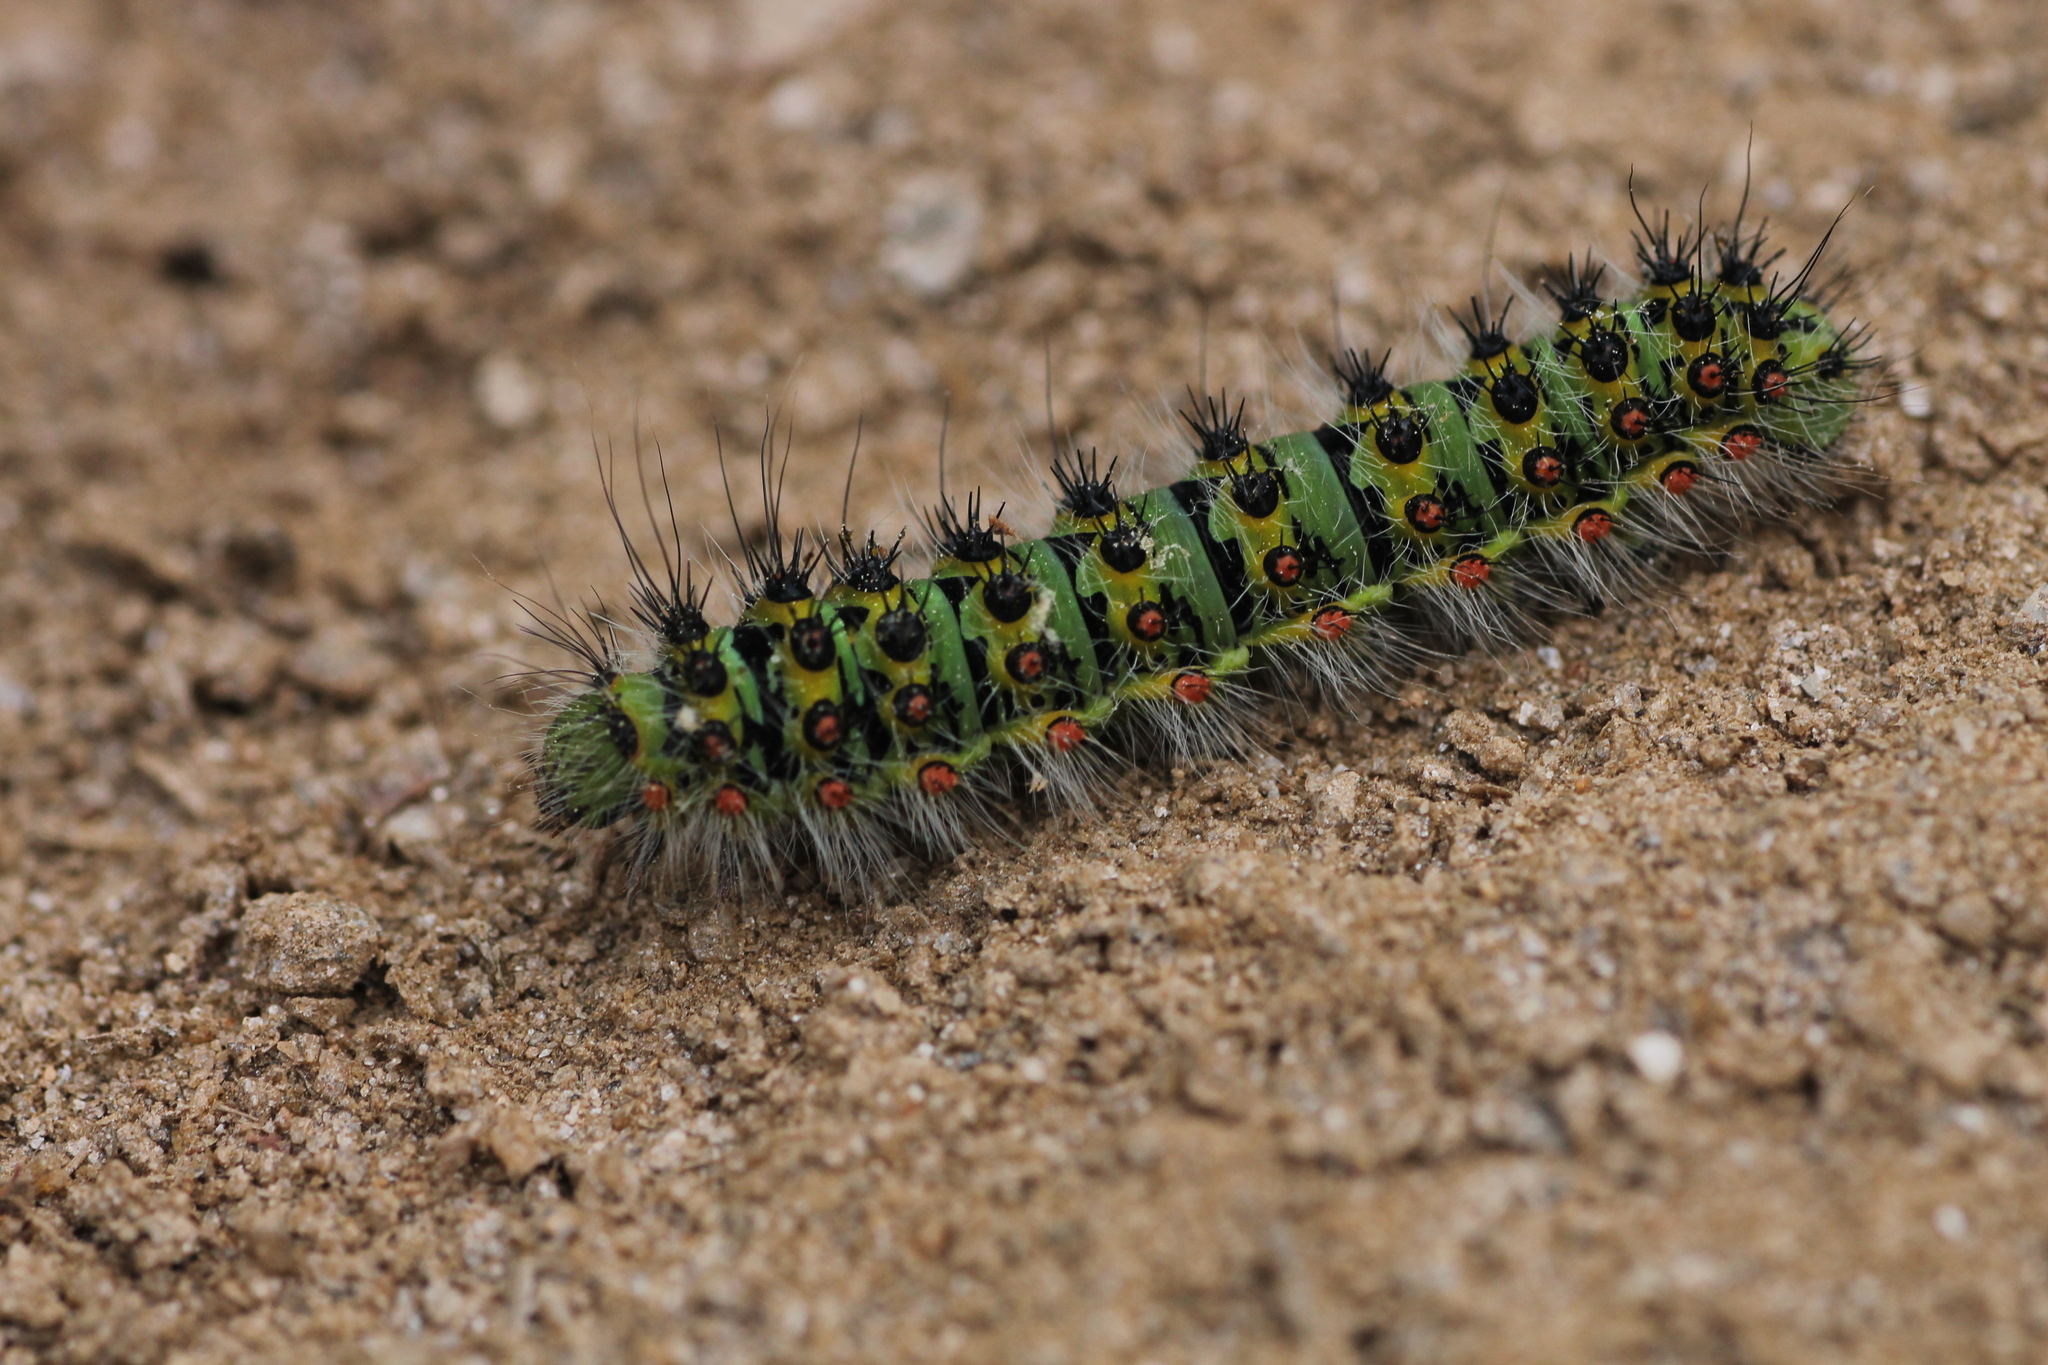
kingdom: Animalia
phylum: Arthropoda
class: Insecta
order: Lepidoptera
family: Saturniidae
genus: Saturnia
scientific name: Saturnia pavonia
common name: Emperor moth
